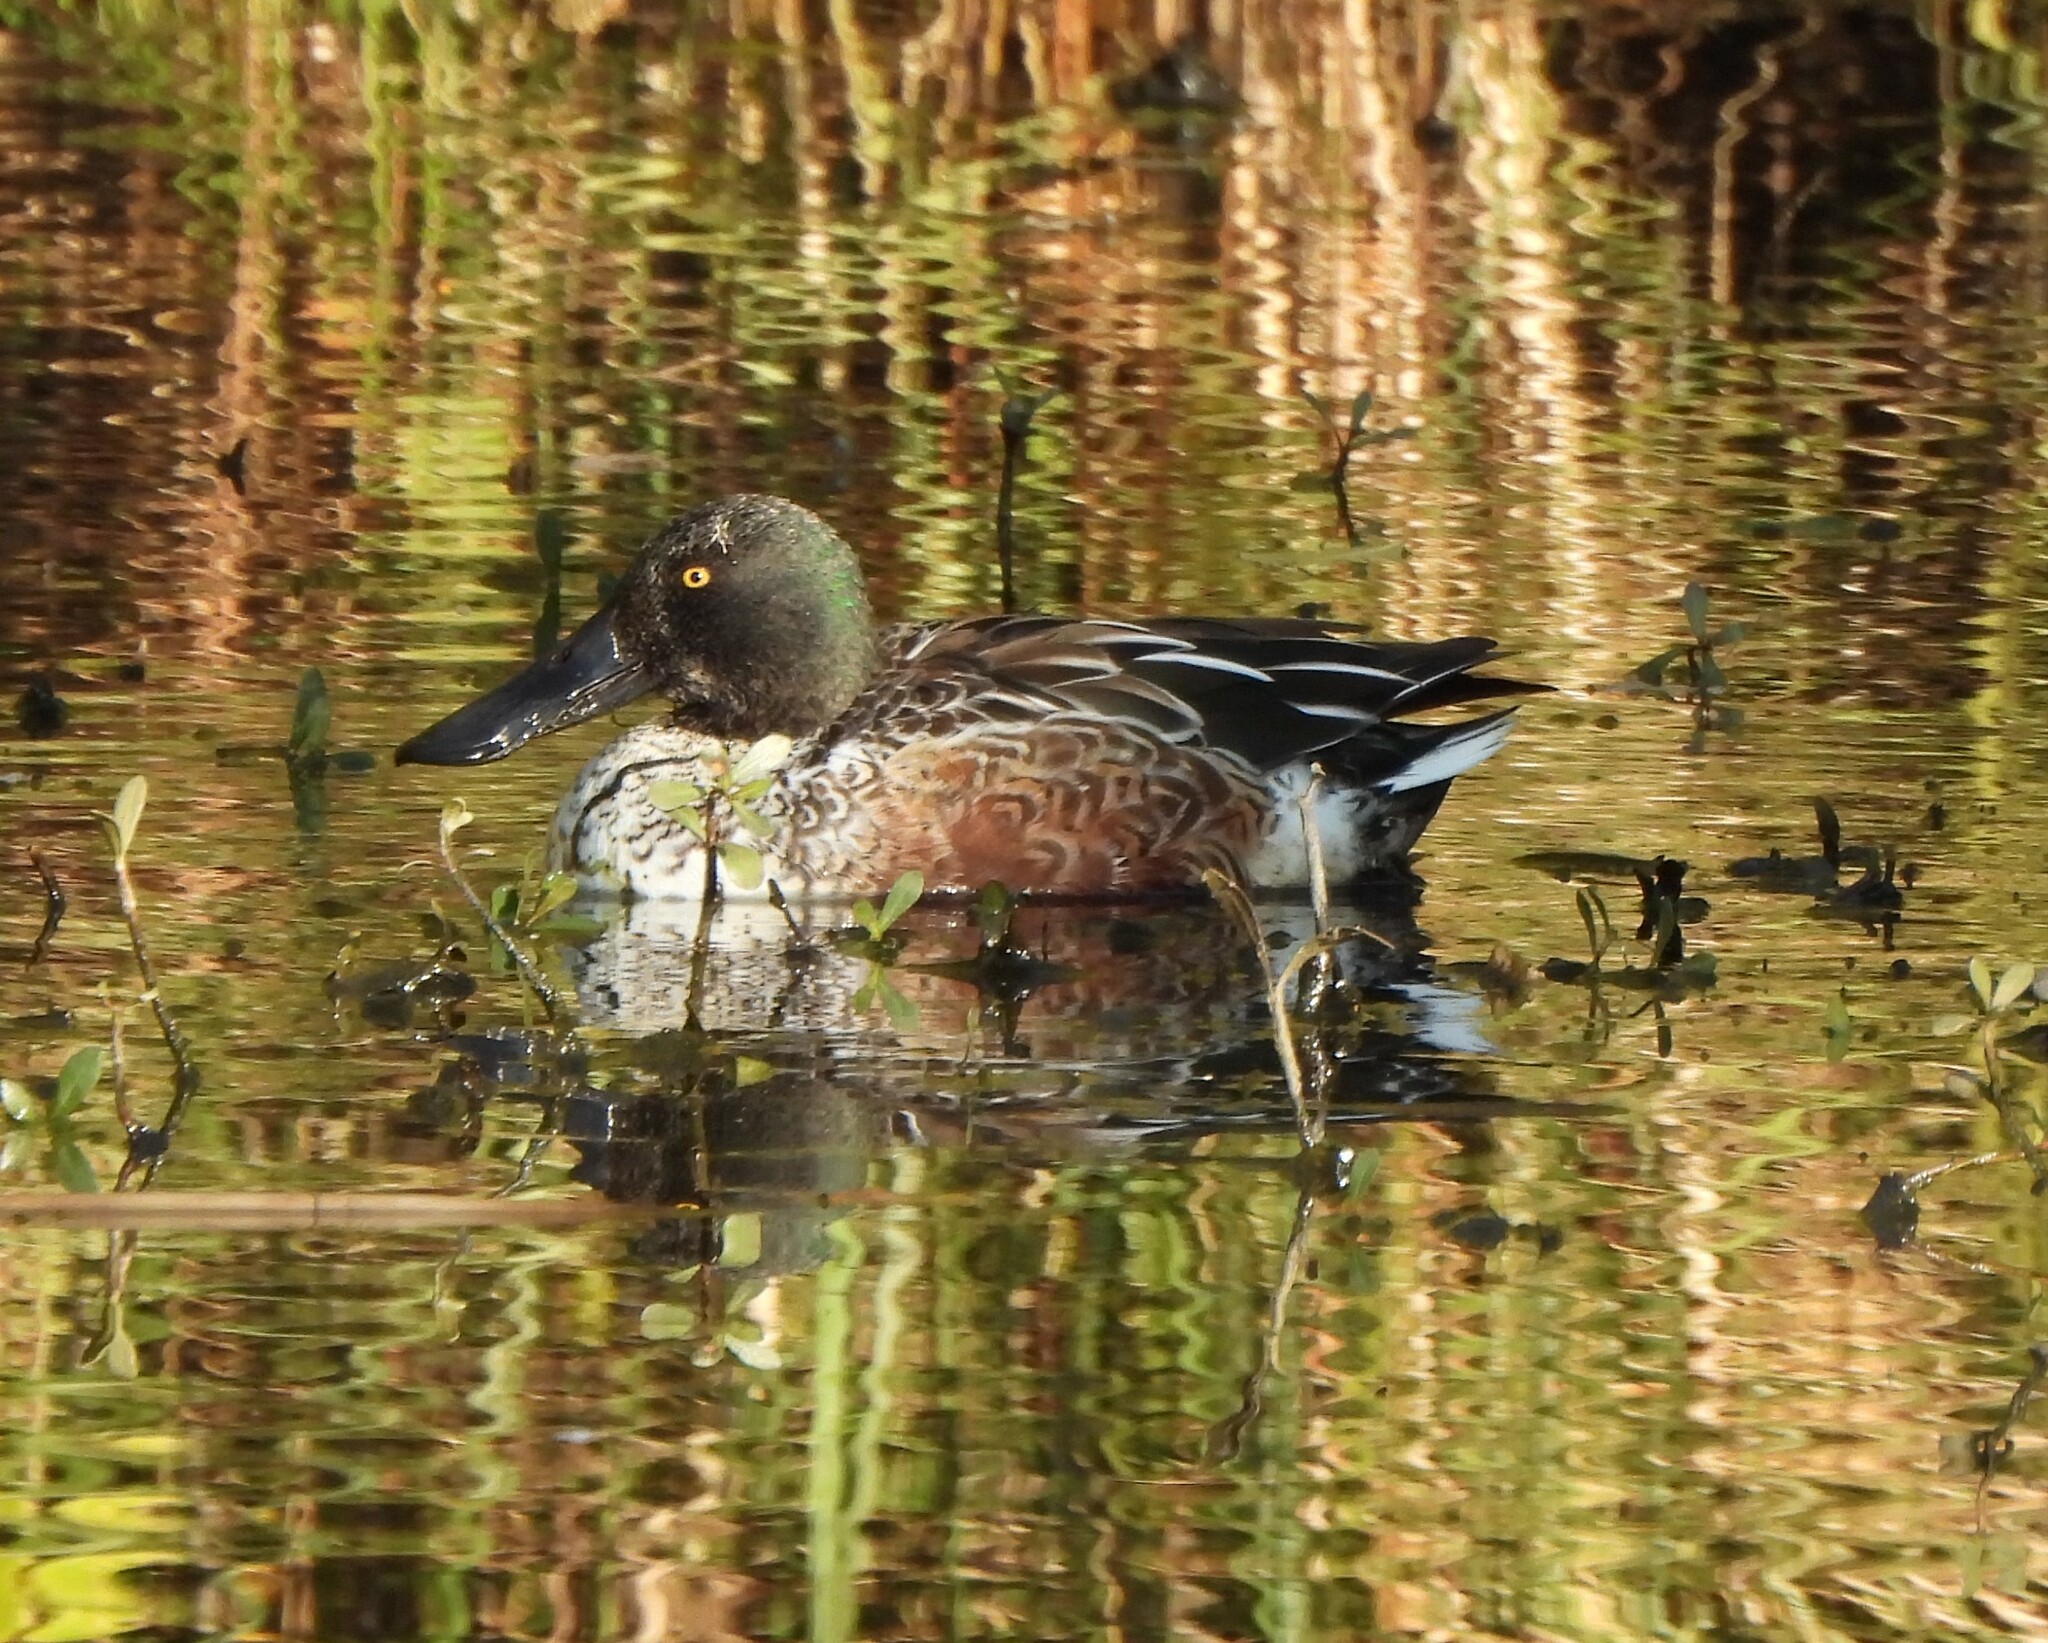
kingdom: Animalia
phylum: Chordata
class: Aves
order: Anseriformes
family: Anatidae
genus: Spatula
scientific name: Spatula clypeata
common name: Northern shoveler
